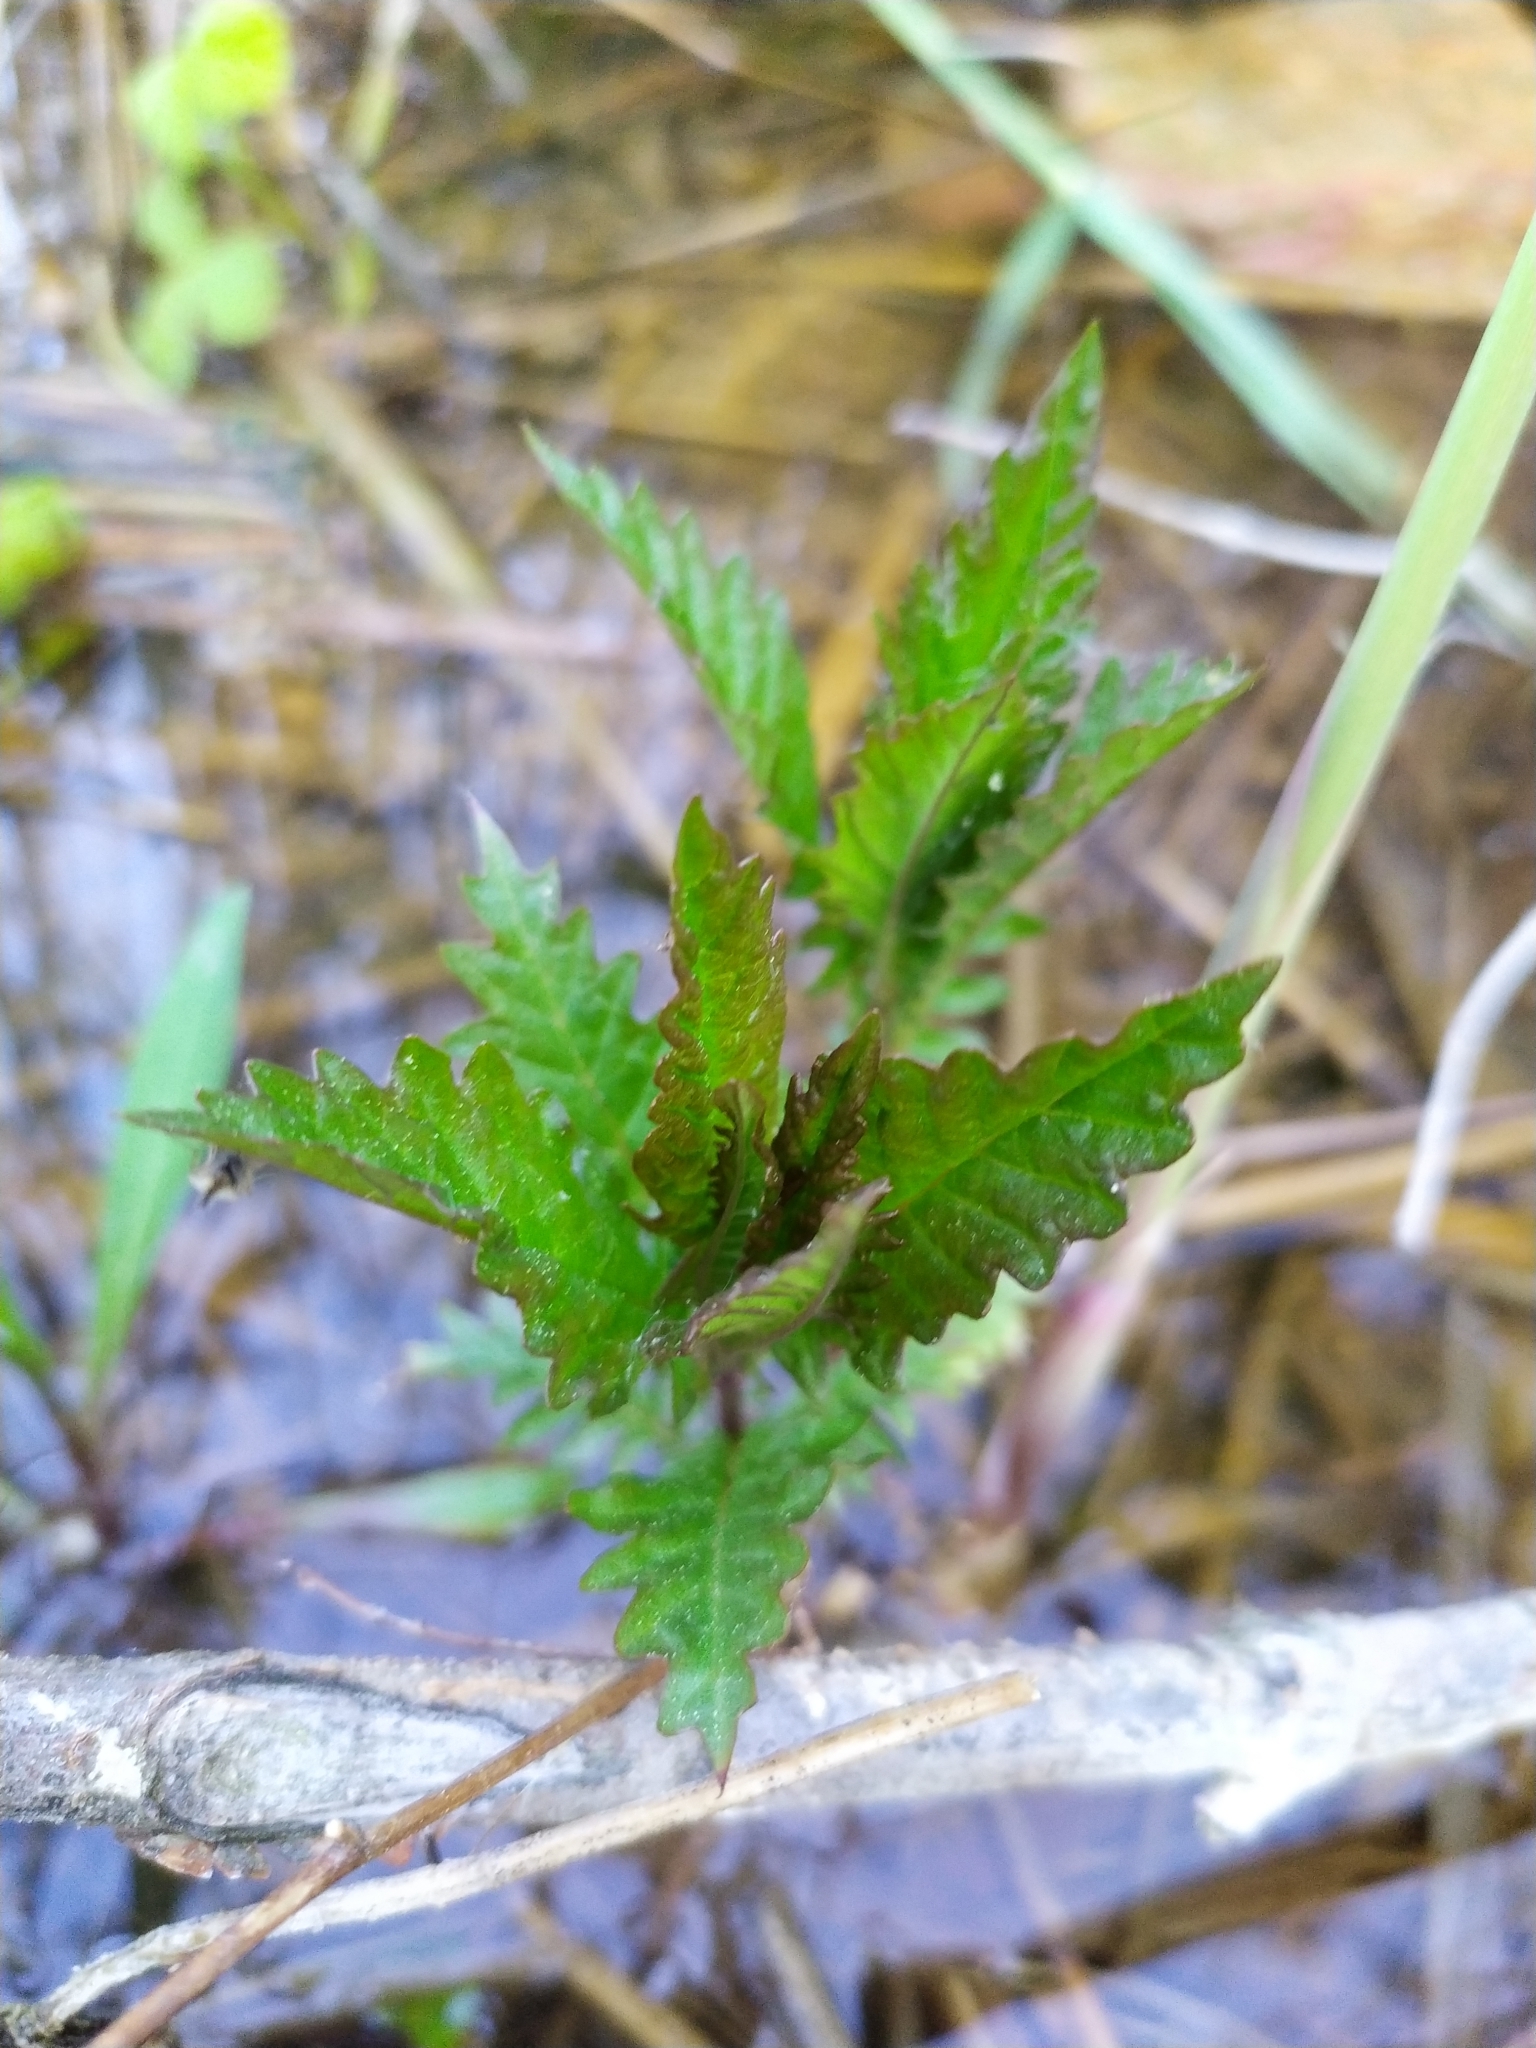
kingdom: Plantae
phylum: Tracheophyta
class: Magnoliopsida
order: Lamiales
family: Lamiaceae
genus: Lycopus
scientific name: Lycopus europaeus
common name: European bugleweed
